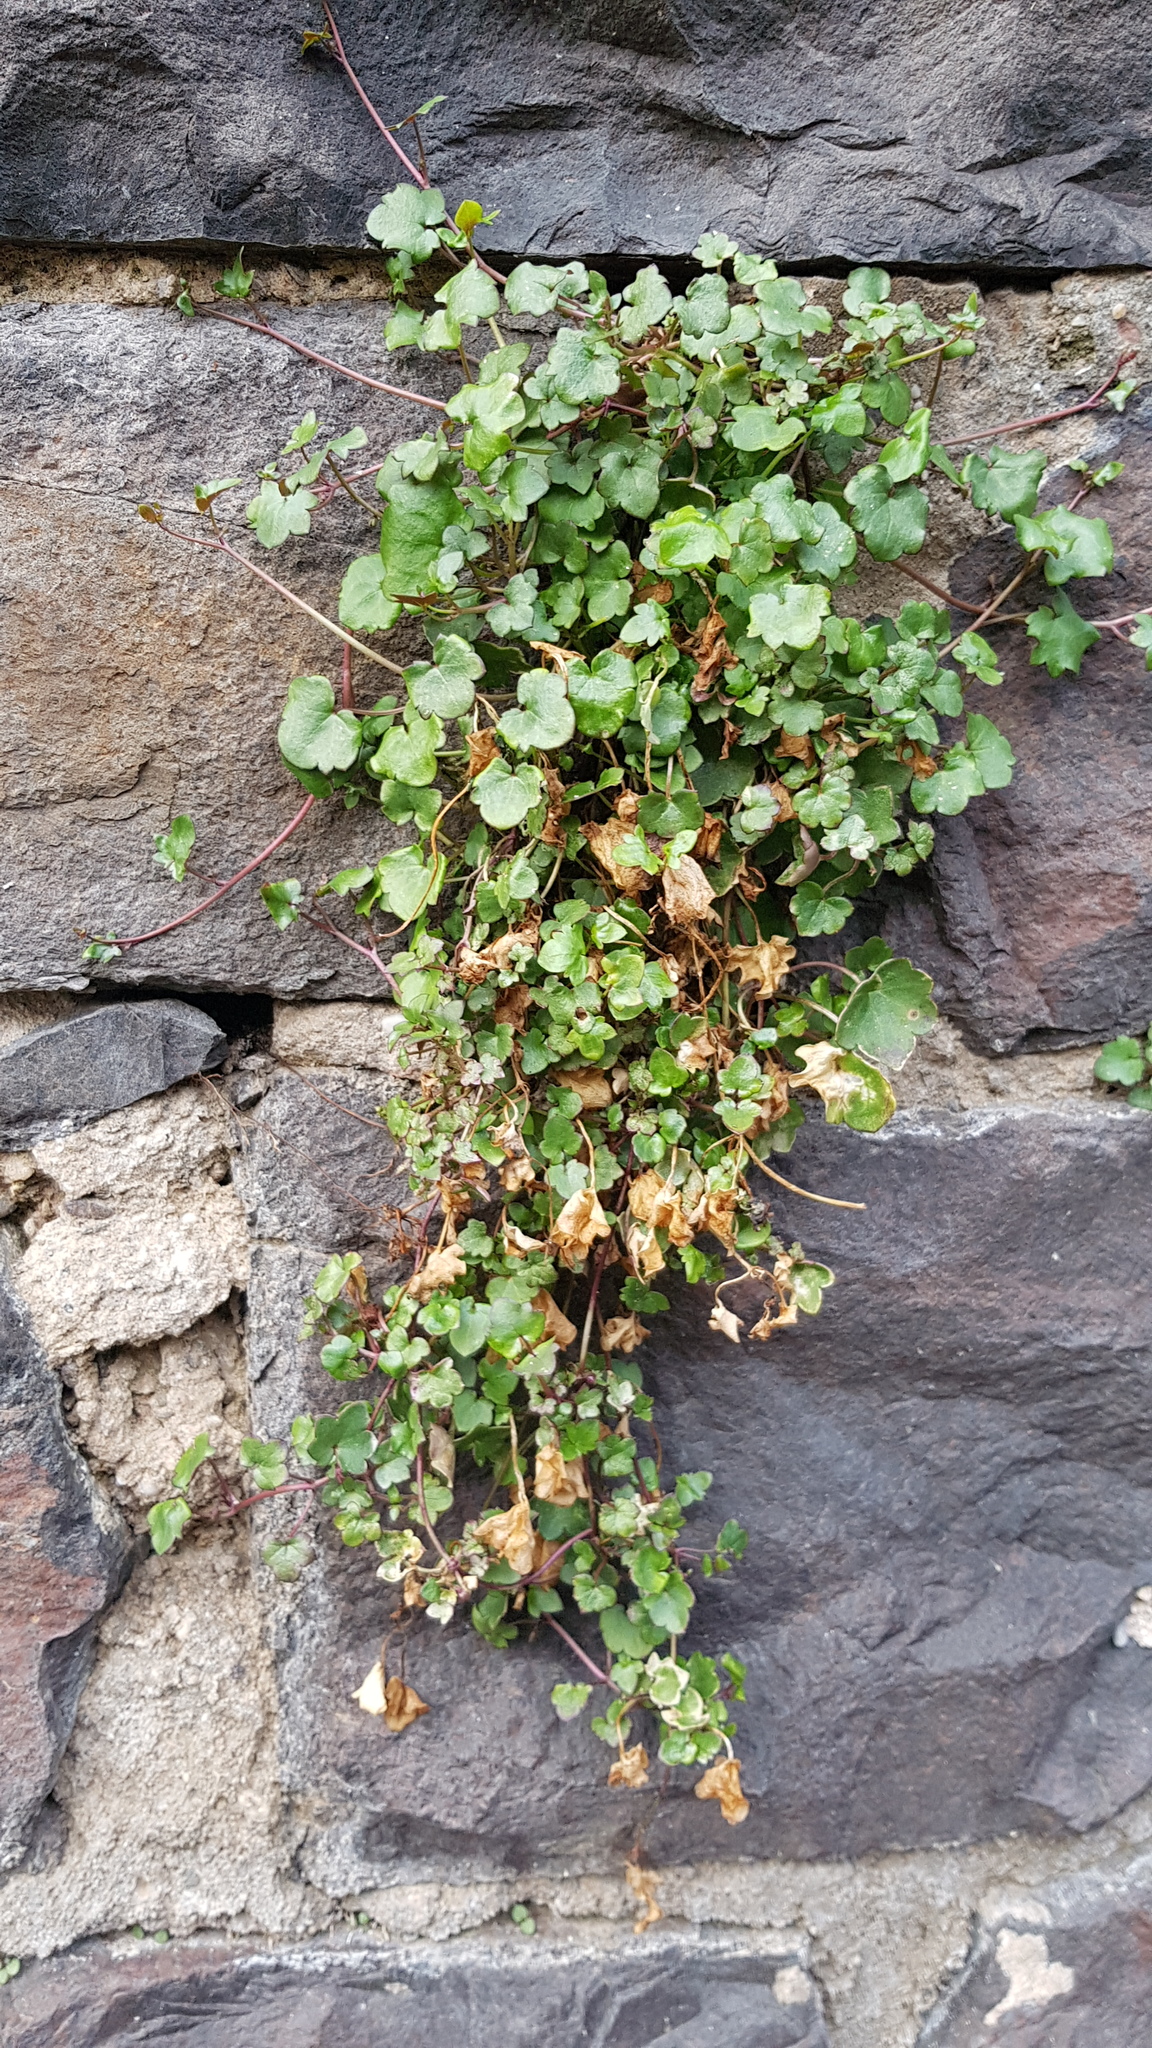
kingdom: Plantae
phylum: Tracheophyta
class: Magnoliopsida
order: Lamiales
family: Plantaginaceae
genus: Cymbalaria
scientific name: Cymbalaria muralis
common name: Ivy-leaved toadflax
